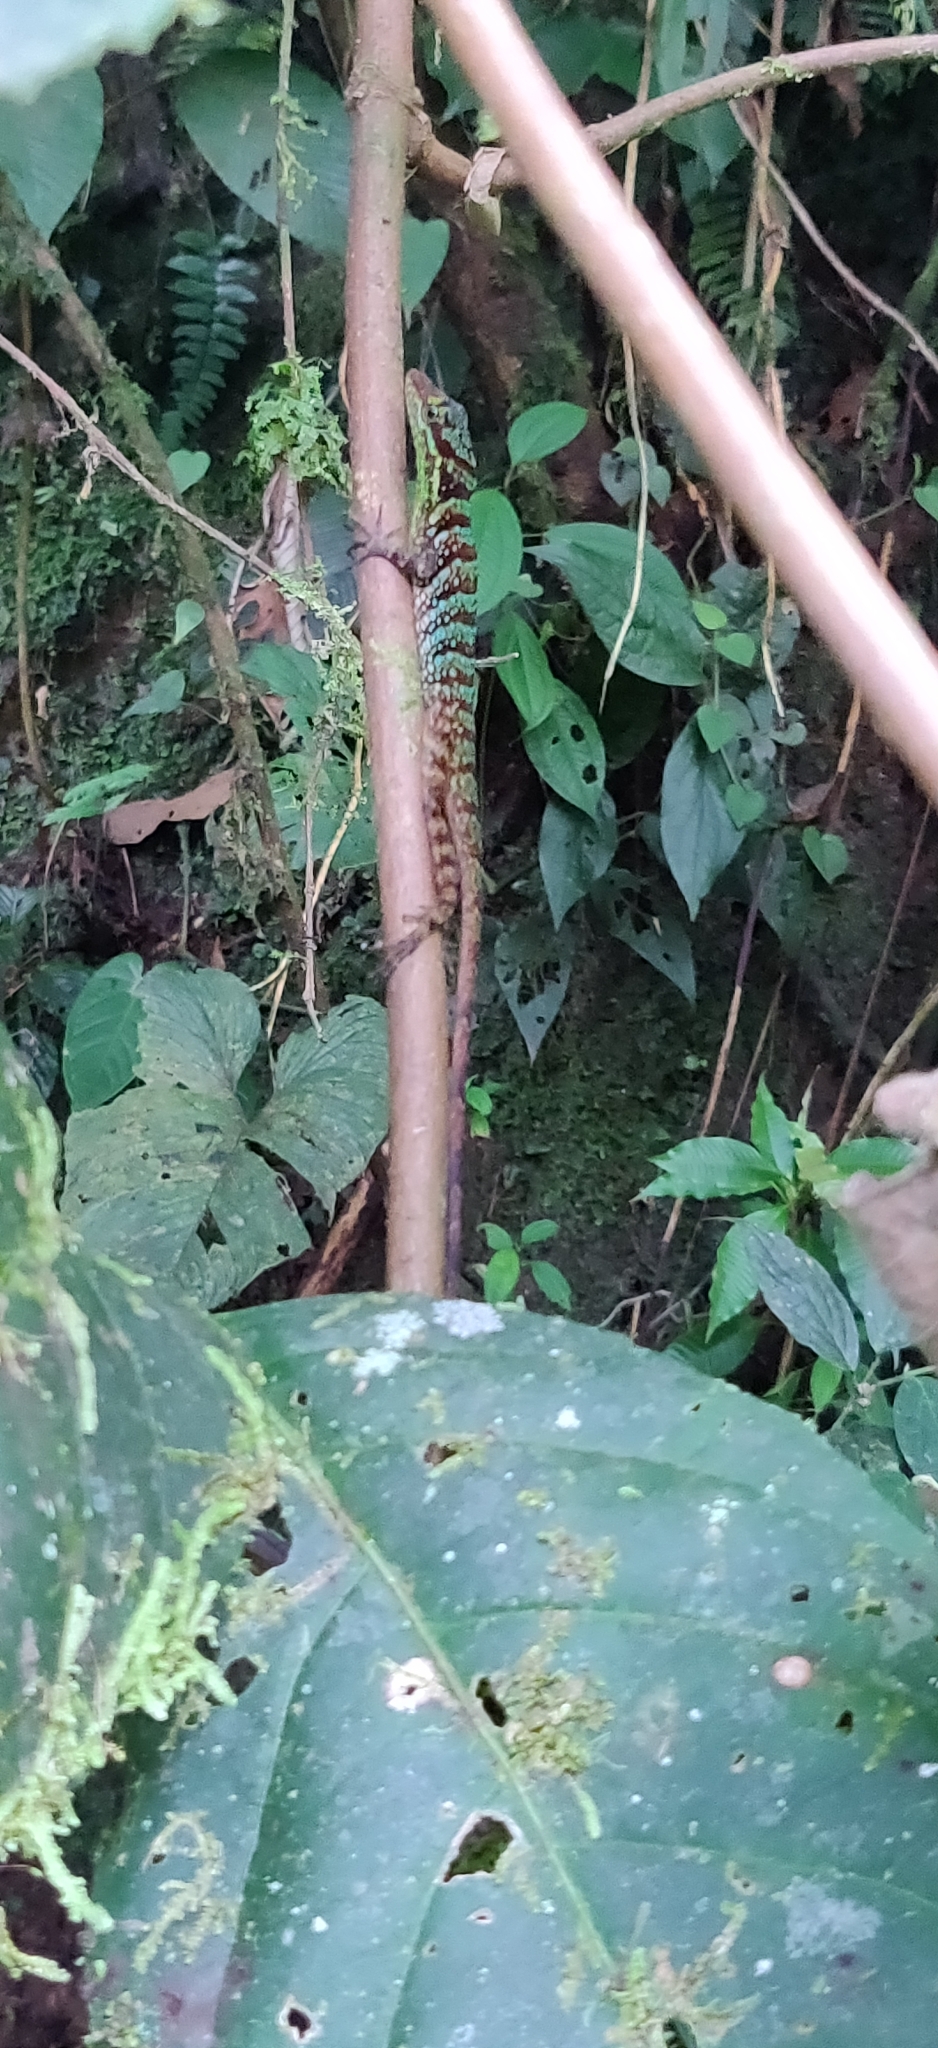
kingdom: Animalia
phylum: Chordata
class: Squamata
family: Dactyloidae
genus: Anolis
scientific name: Anolis ventrimaculatus
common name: Speckled anole
